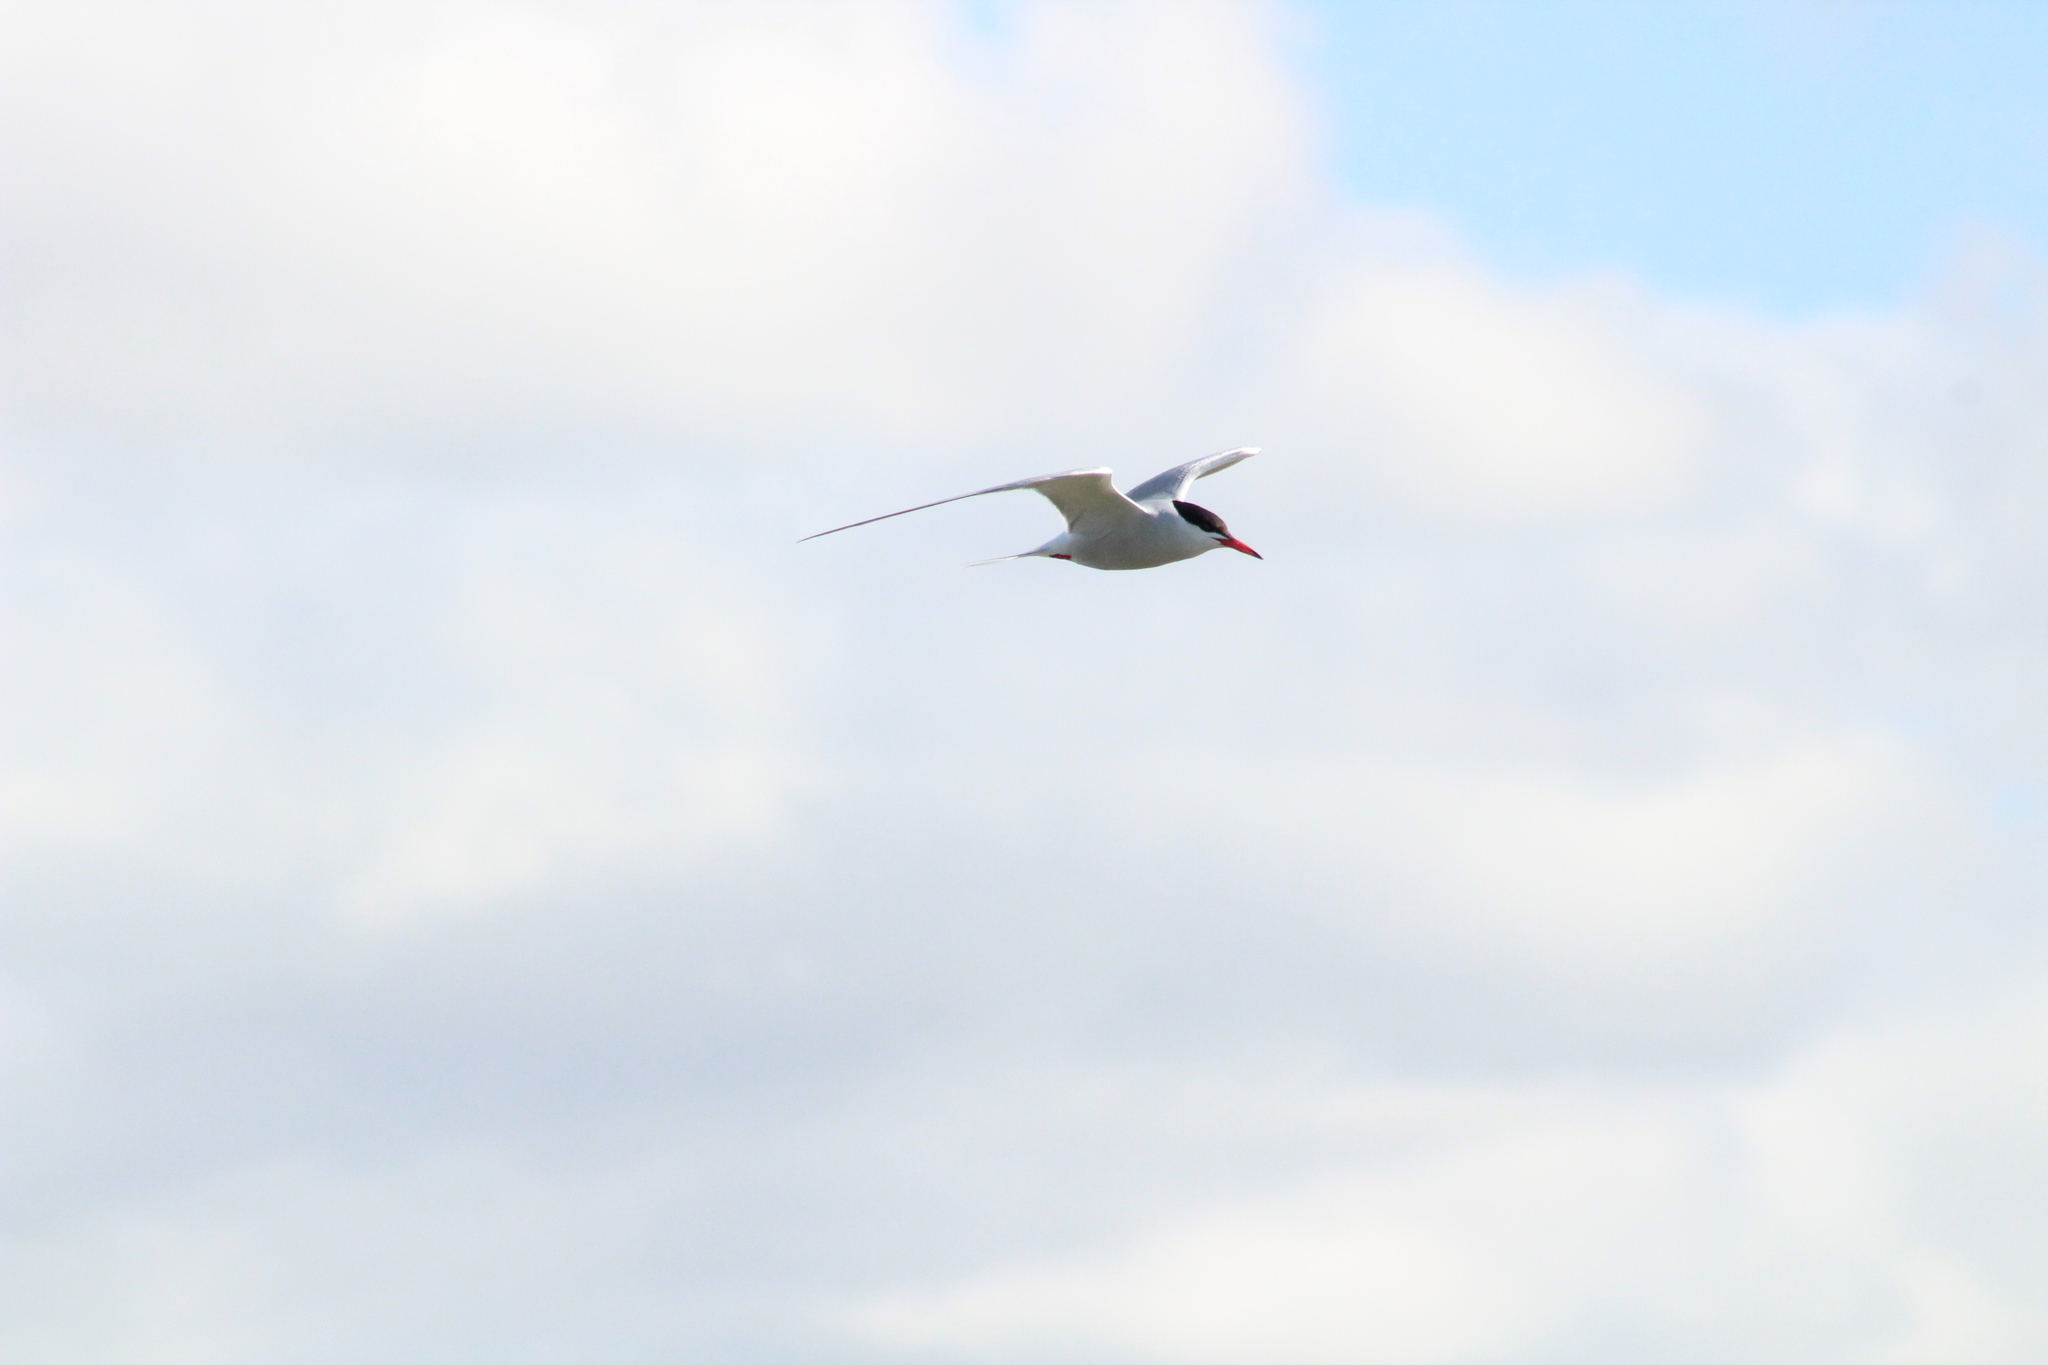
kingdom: Animalia
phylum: Chordata
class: Aves
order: Charadriiformes
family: Laridae
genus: Sterna
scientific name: Sterna hirundo
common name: Common tern
